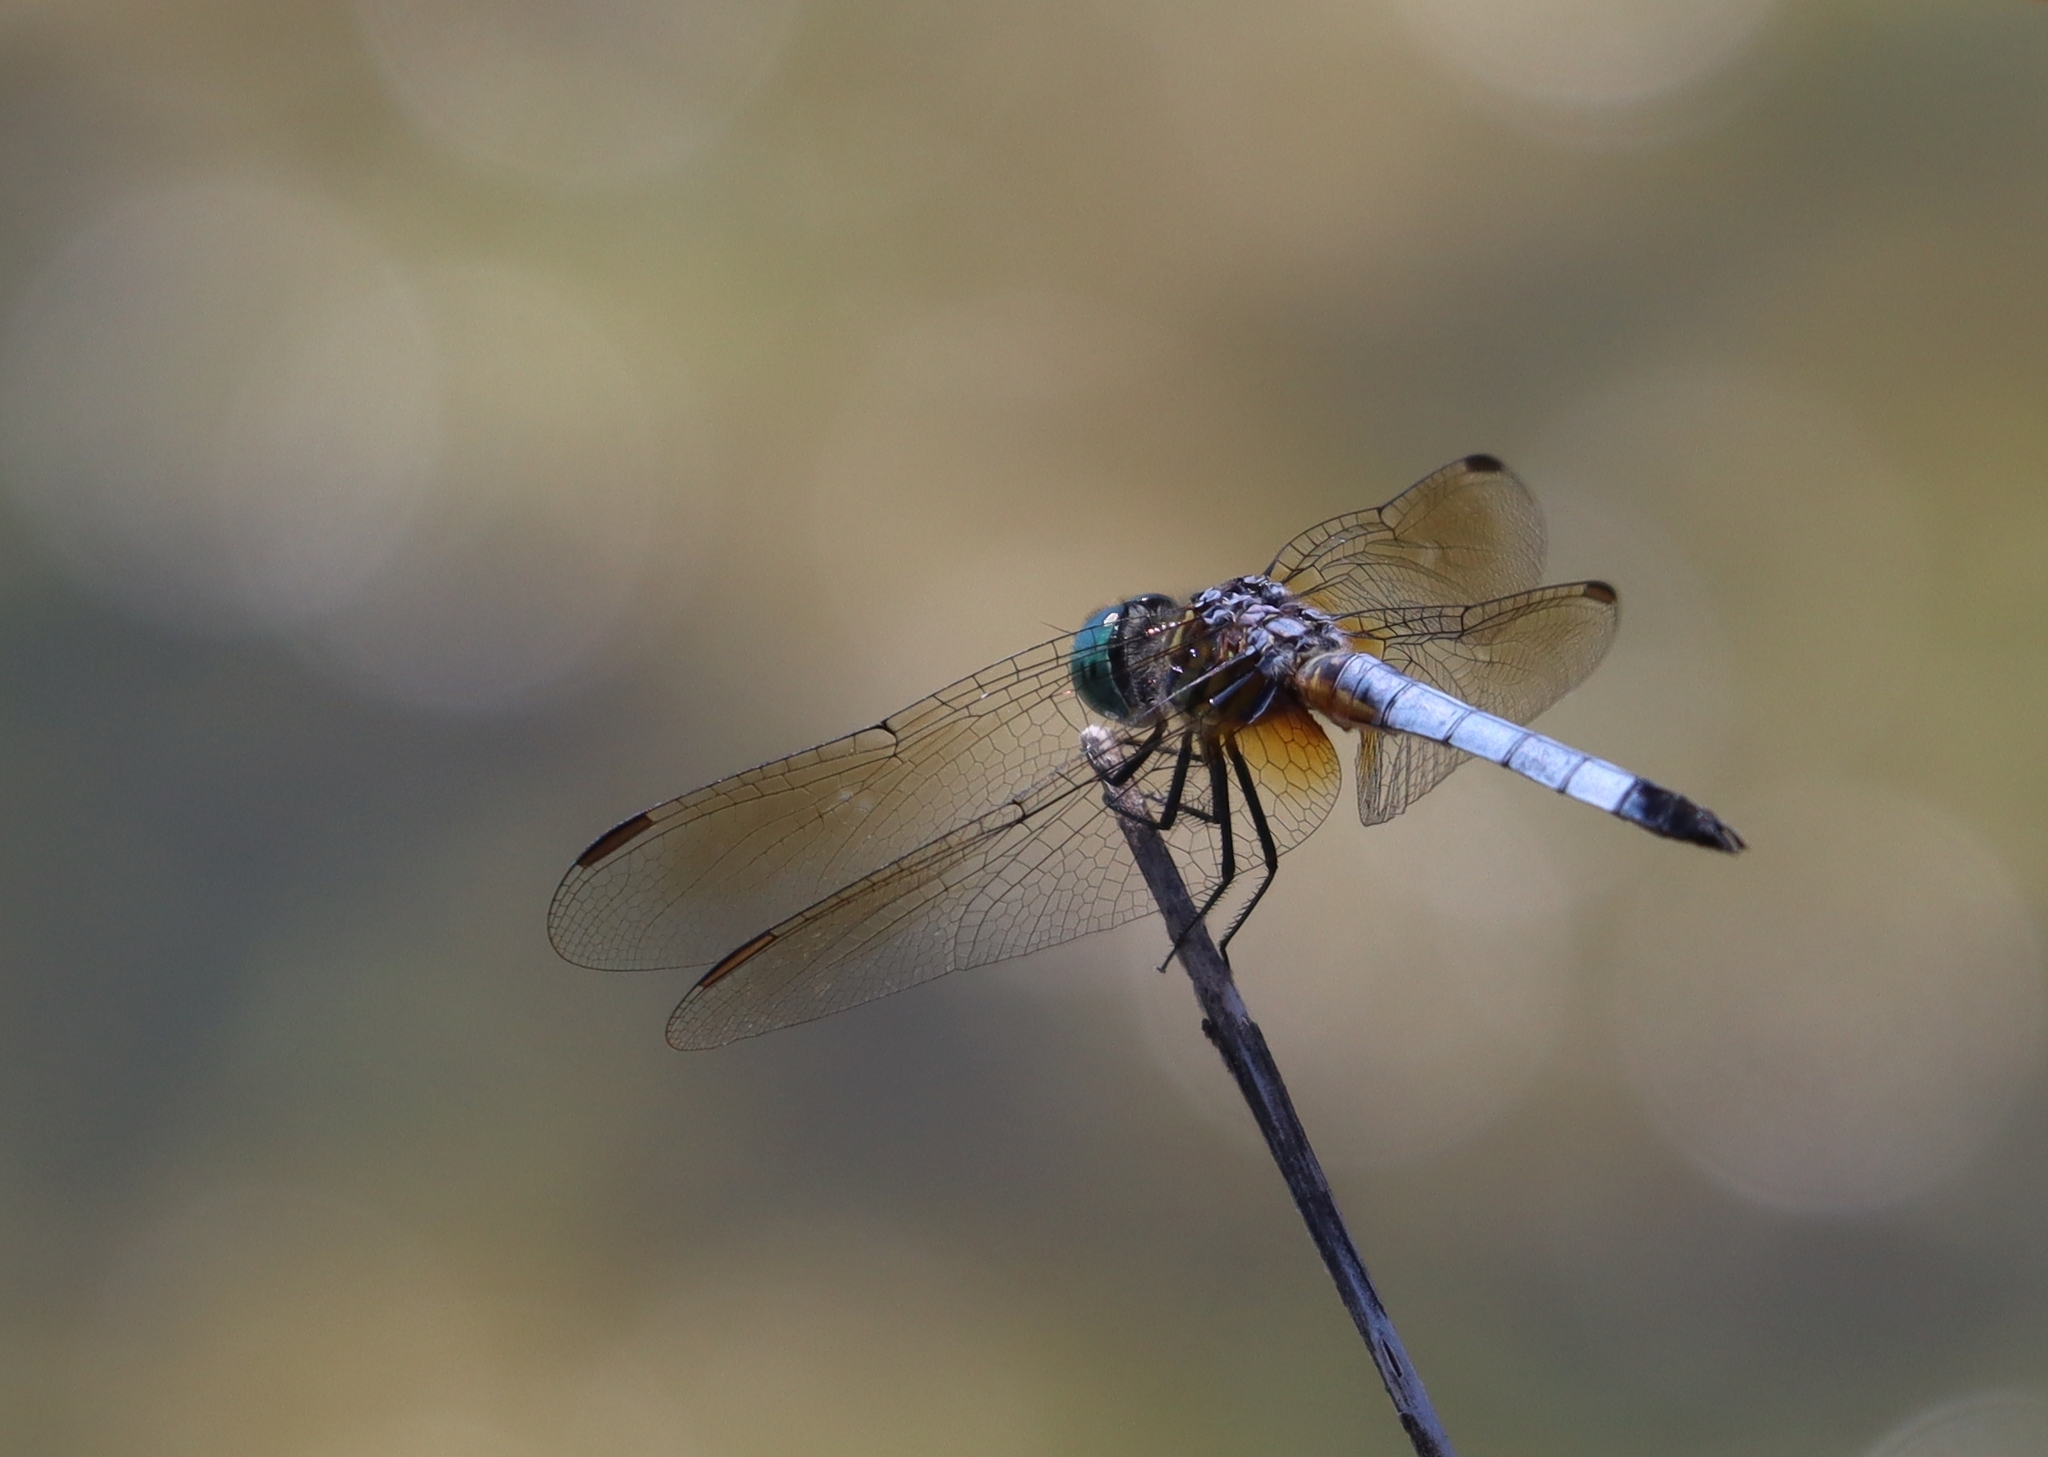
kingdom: Animalia
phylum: Arthropoda
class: Insecta
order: Odonata
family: Libellulidae
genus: Pachydiplax
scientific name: Pachydiplax longipennis
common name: Blue dasher
